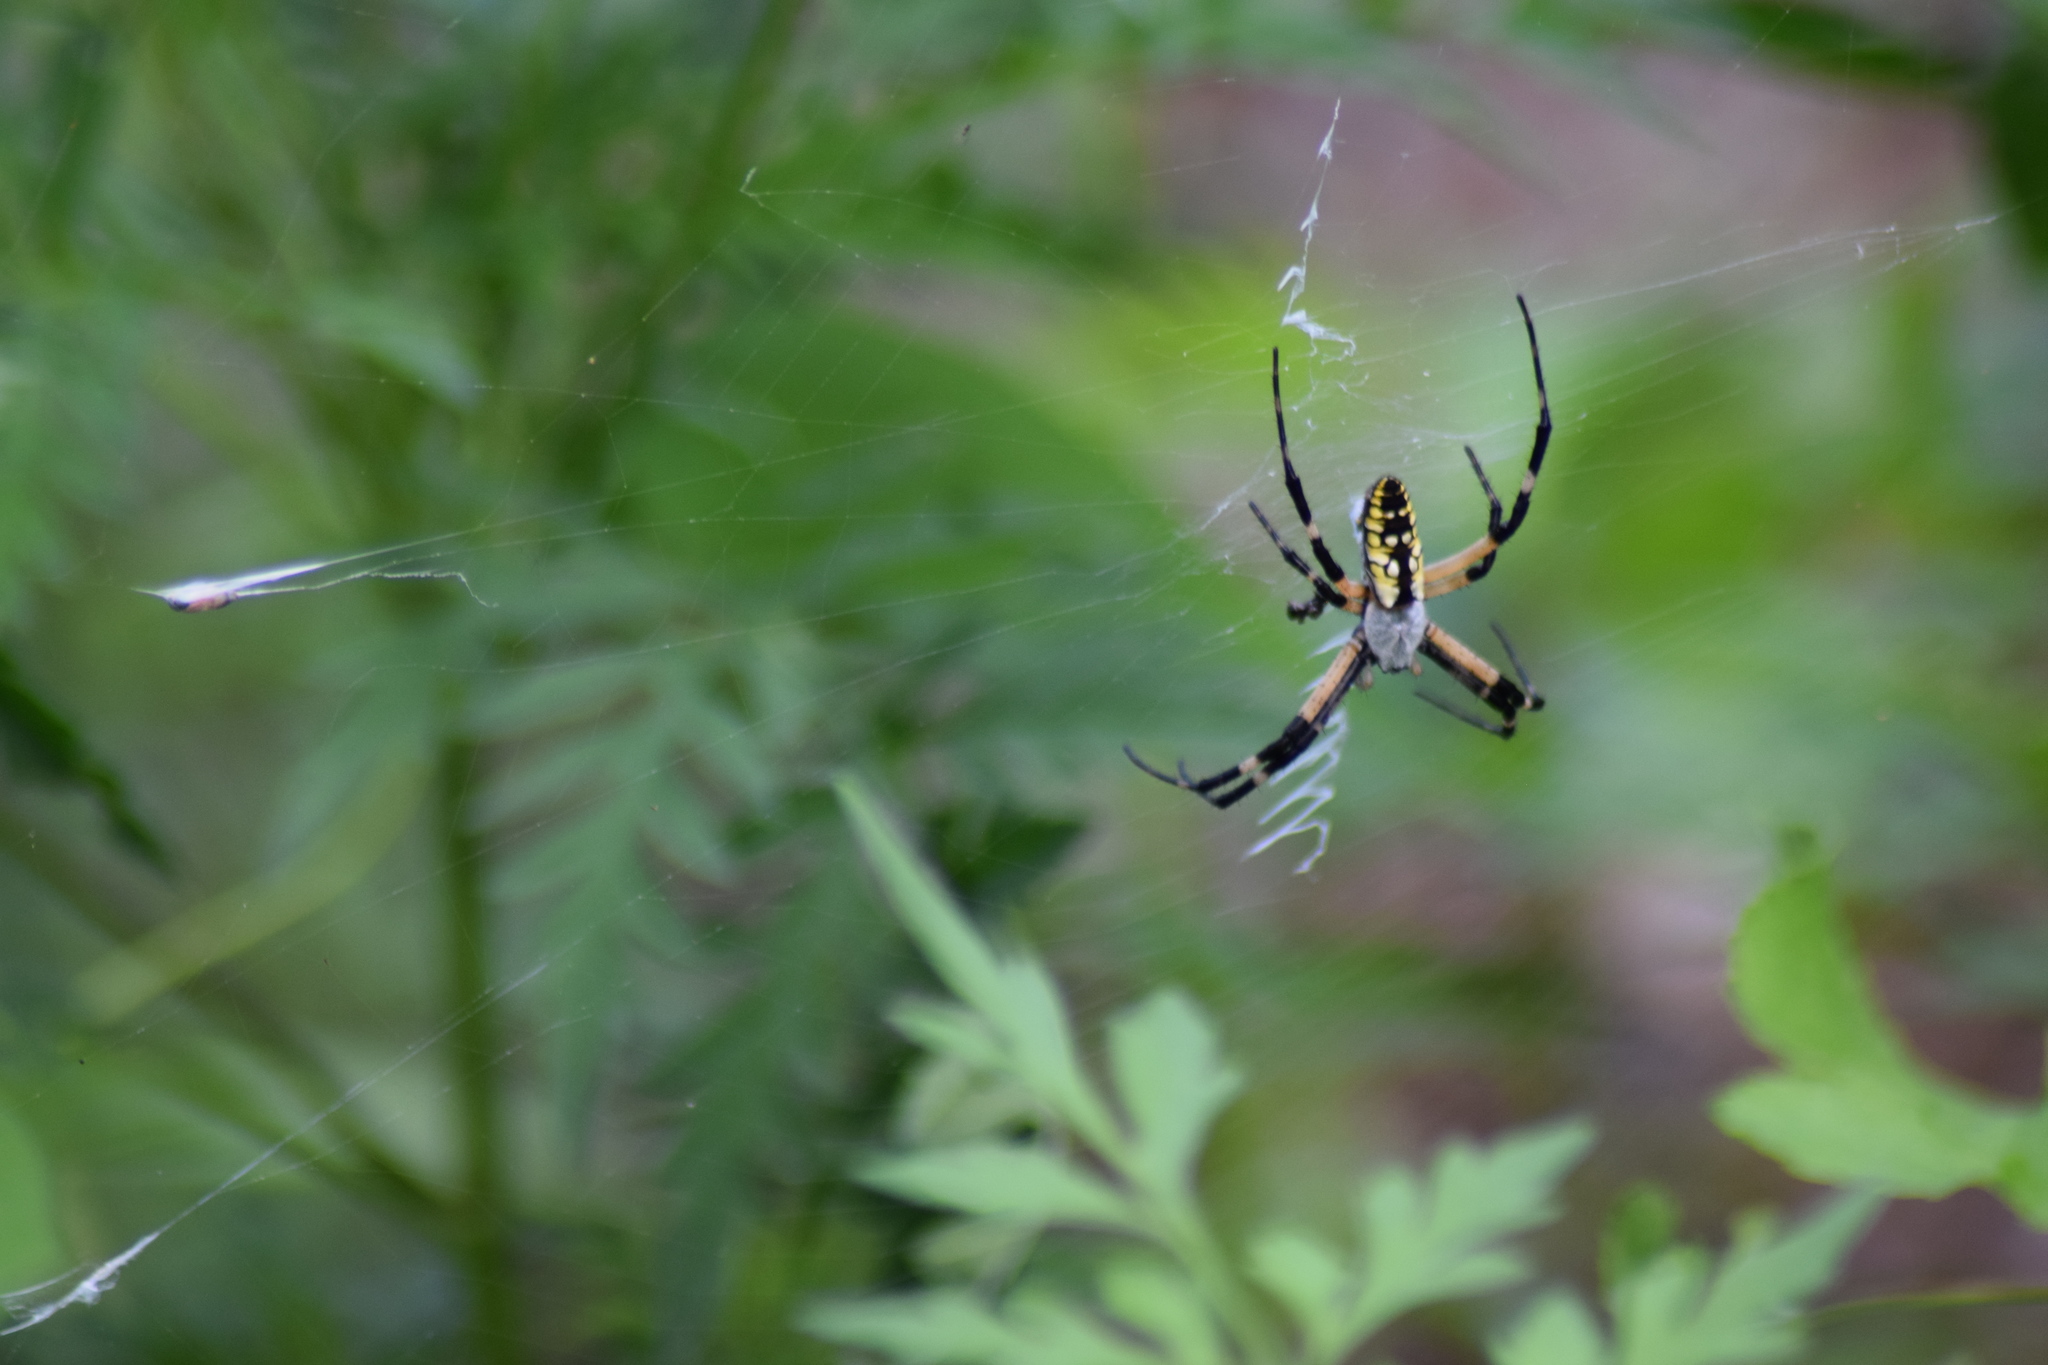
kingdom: Animalia
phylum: Arthropoda
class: Arachnida
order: Araneae
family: Araneidae
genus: Argiope
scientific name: Argiope aurantia
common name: Orb weavers
